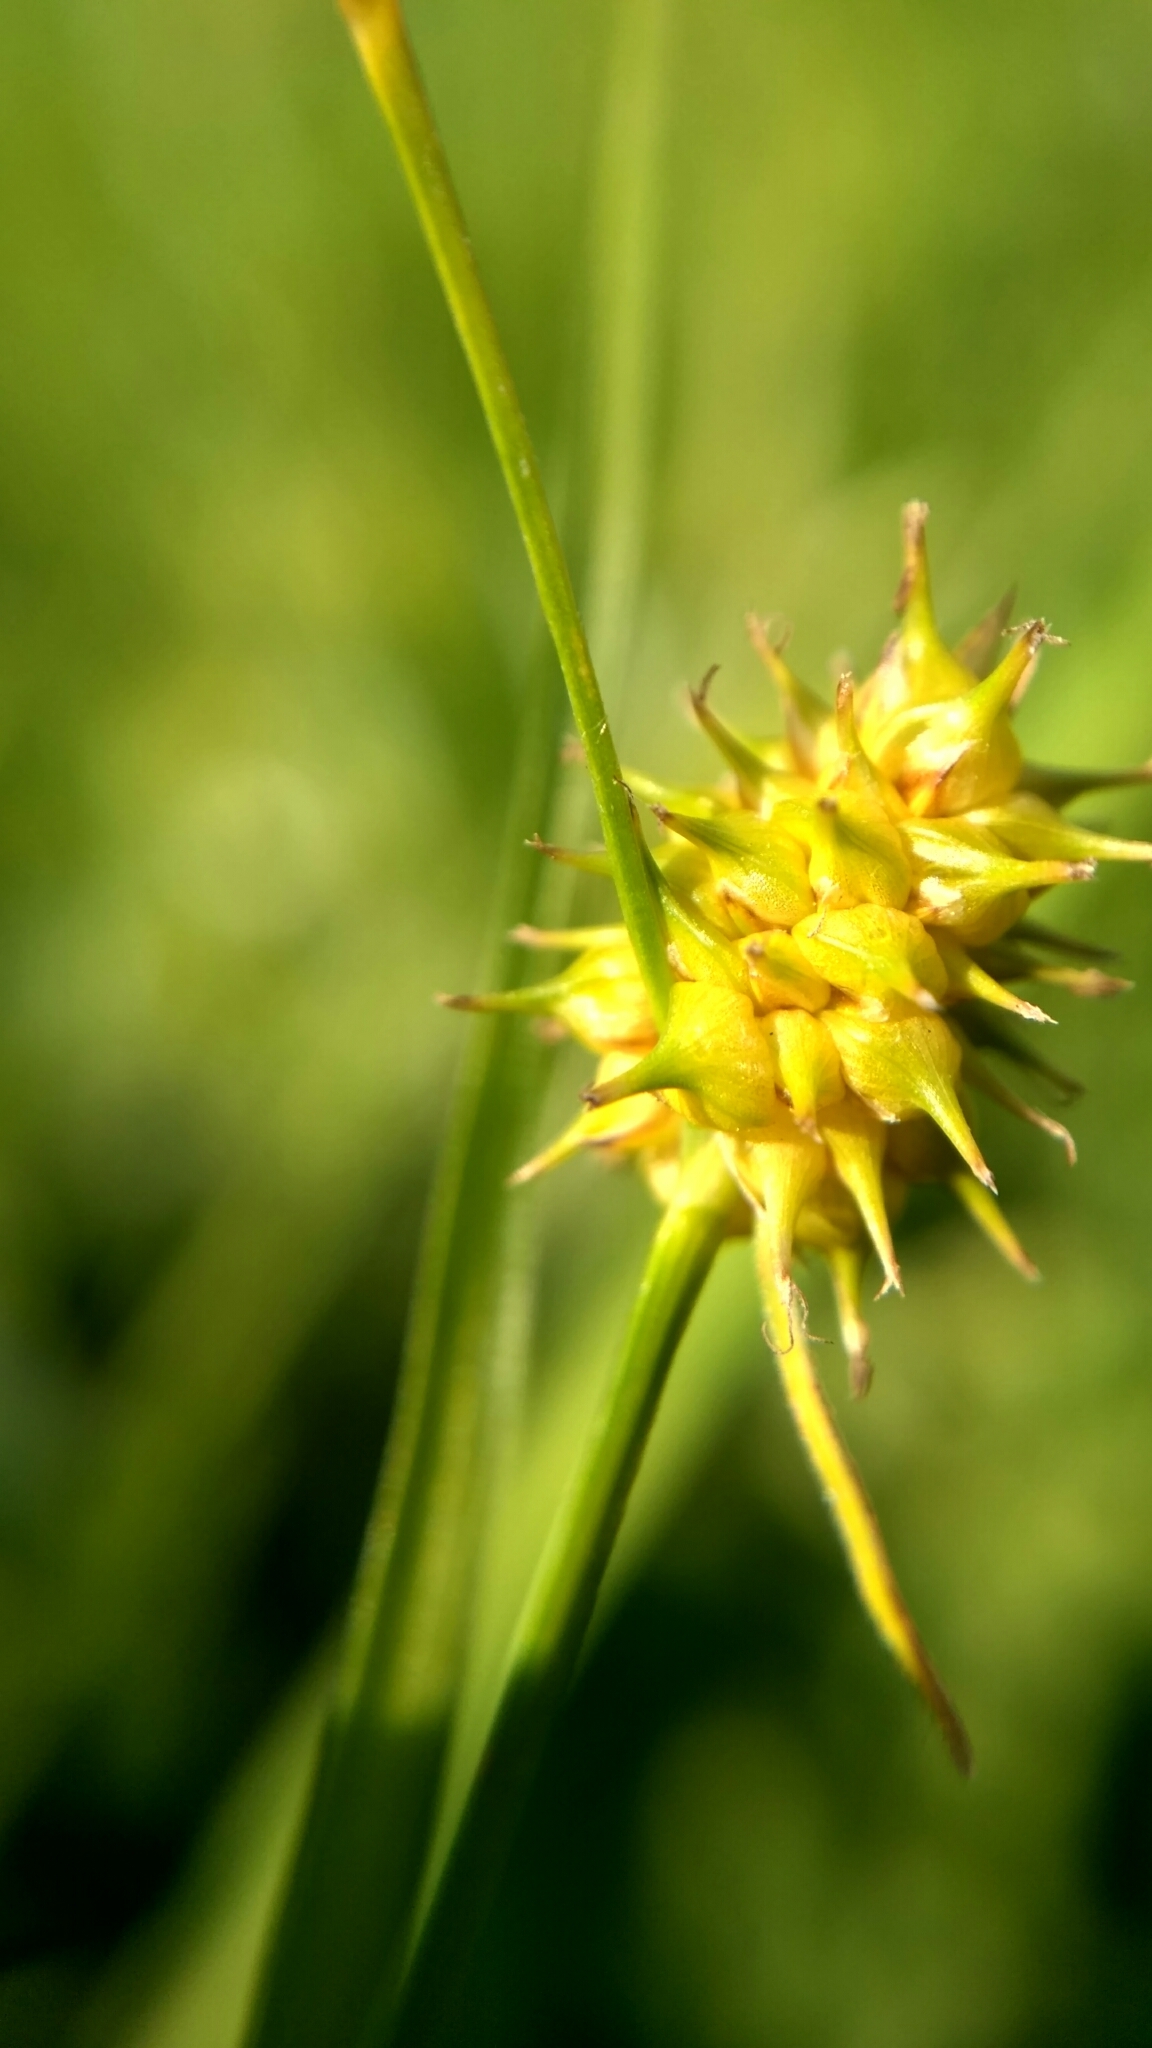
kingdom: Plantae
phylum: Tracheophyta
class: Liliopsida
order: Poales
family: Cyperaceae
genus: Carex
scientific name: Carex lepidocarpa
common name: Long-stalked yellow-sedge
